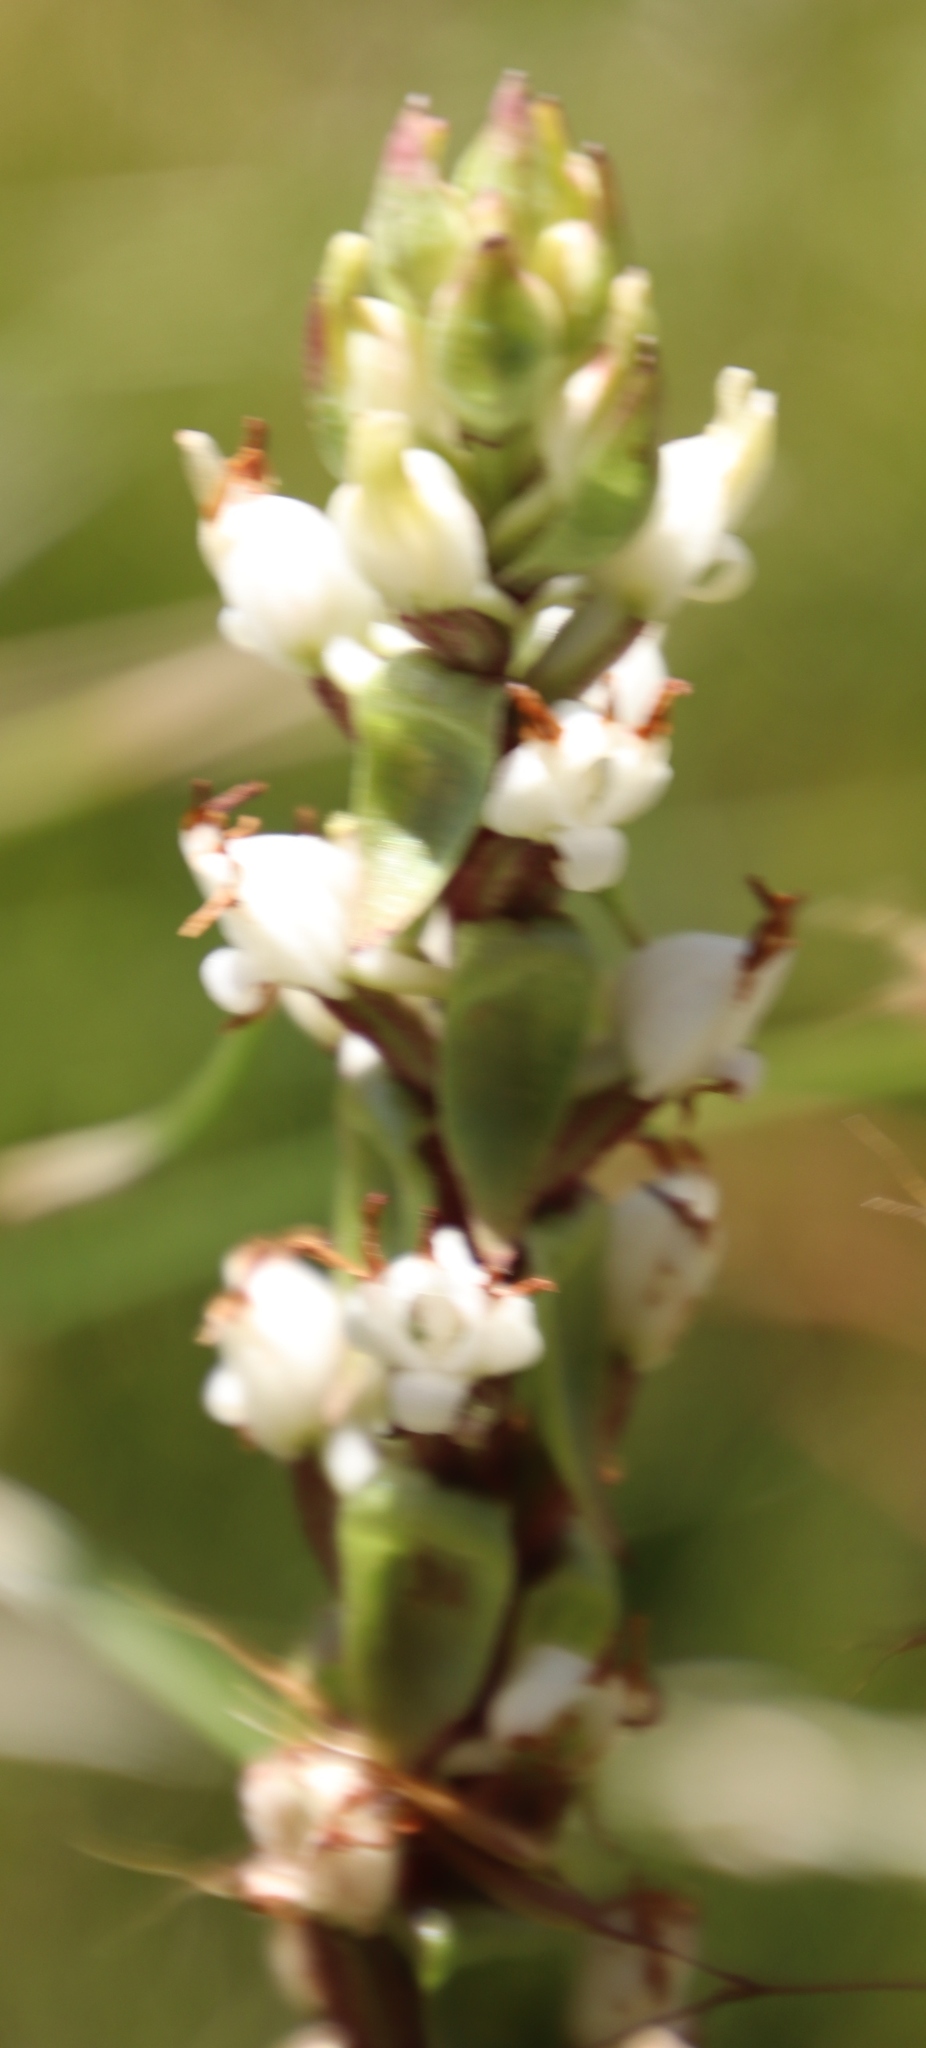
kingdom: Plantae
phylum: Tracheophyta
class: Liliopsida
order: Asparagales
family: Orchidaceae
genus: Satyrium
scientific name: Satyrium ligulatum
